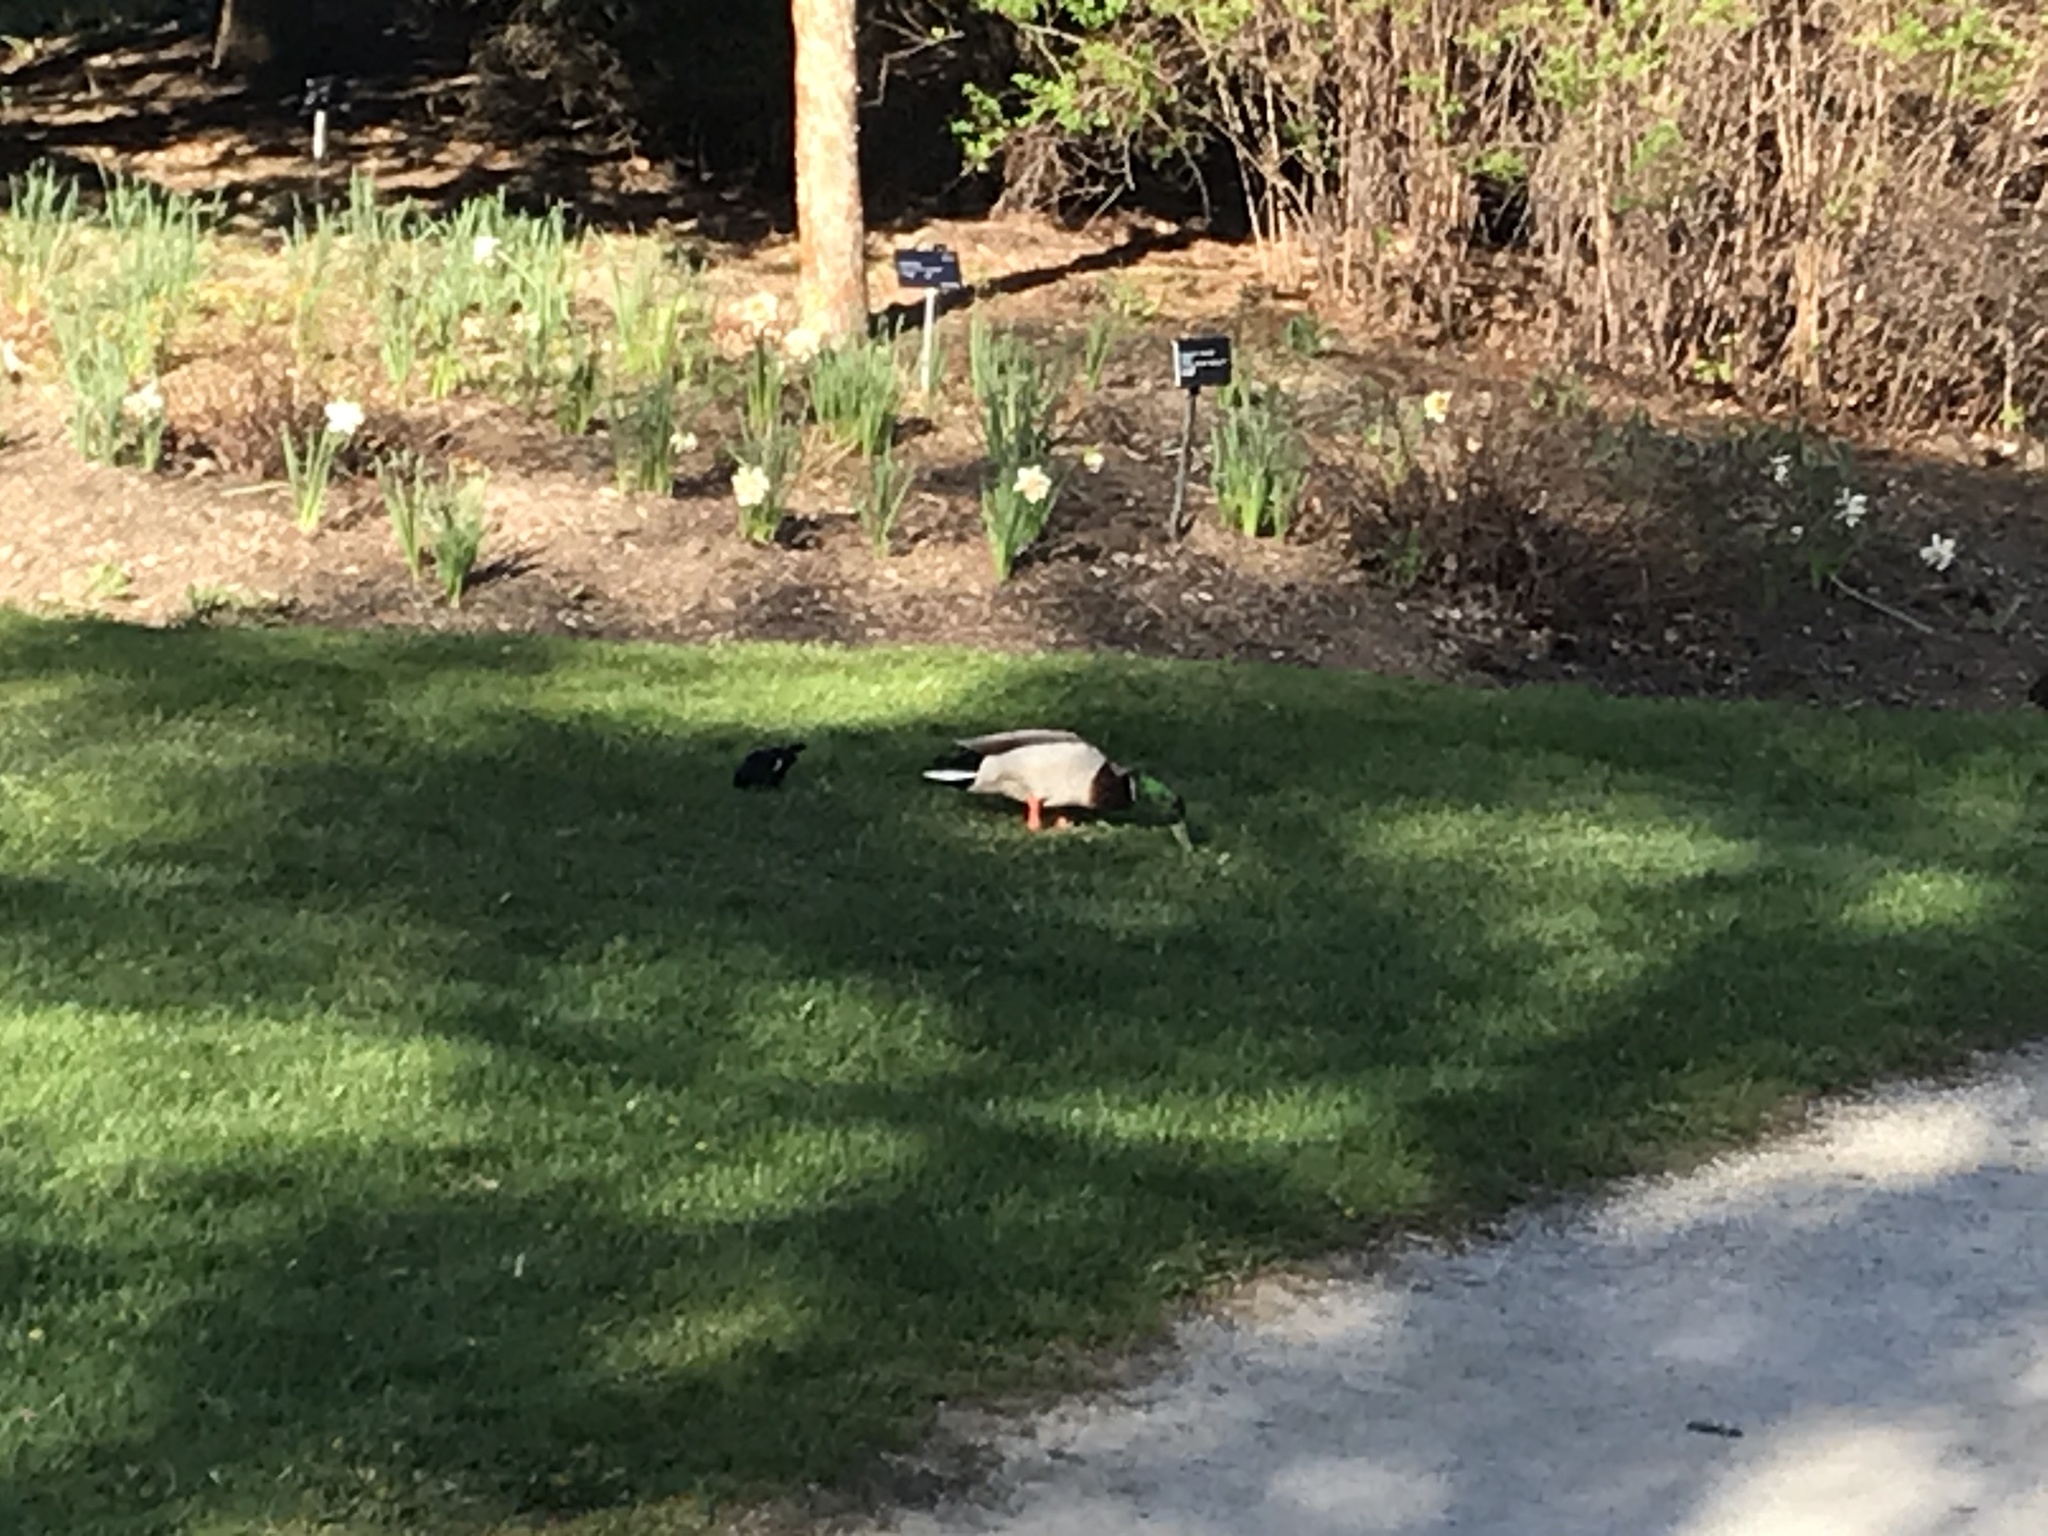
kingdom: Animalia
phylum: Chordata
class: Aves
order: Anseriformes
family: Anatidae
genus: Anas
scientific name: Anas platyrhynchos
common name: Mallard
